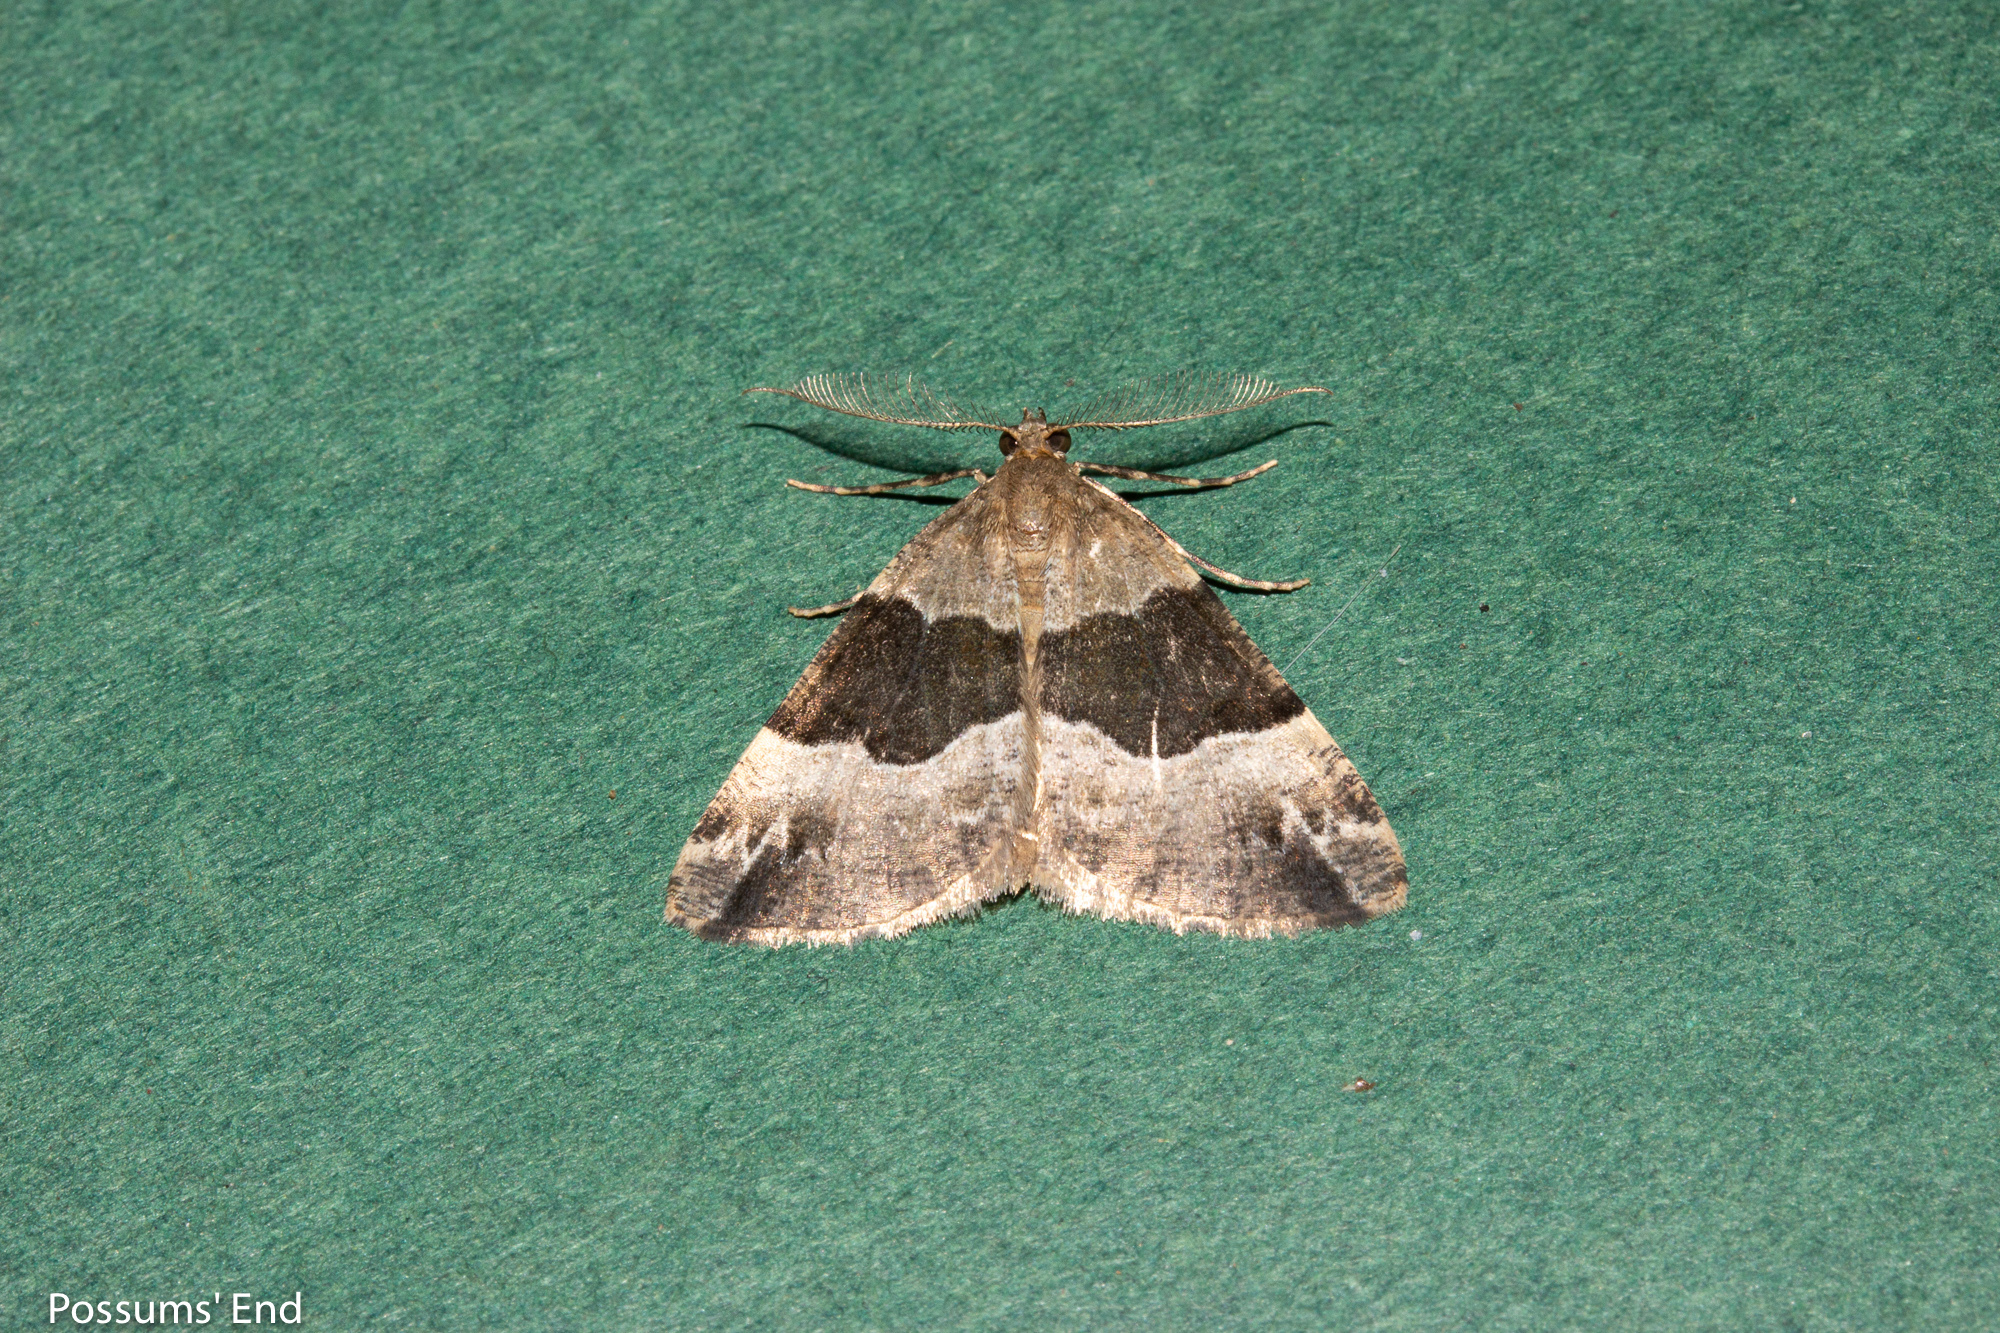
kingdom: Animalia
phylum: Arthropoda
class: Insecta
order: Lepidoptera
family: Geometridae
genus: Pseudocoremia
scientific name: Pseudocoremia
